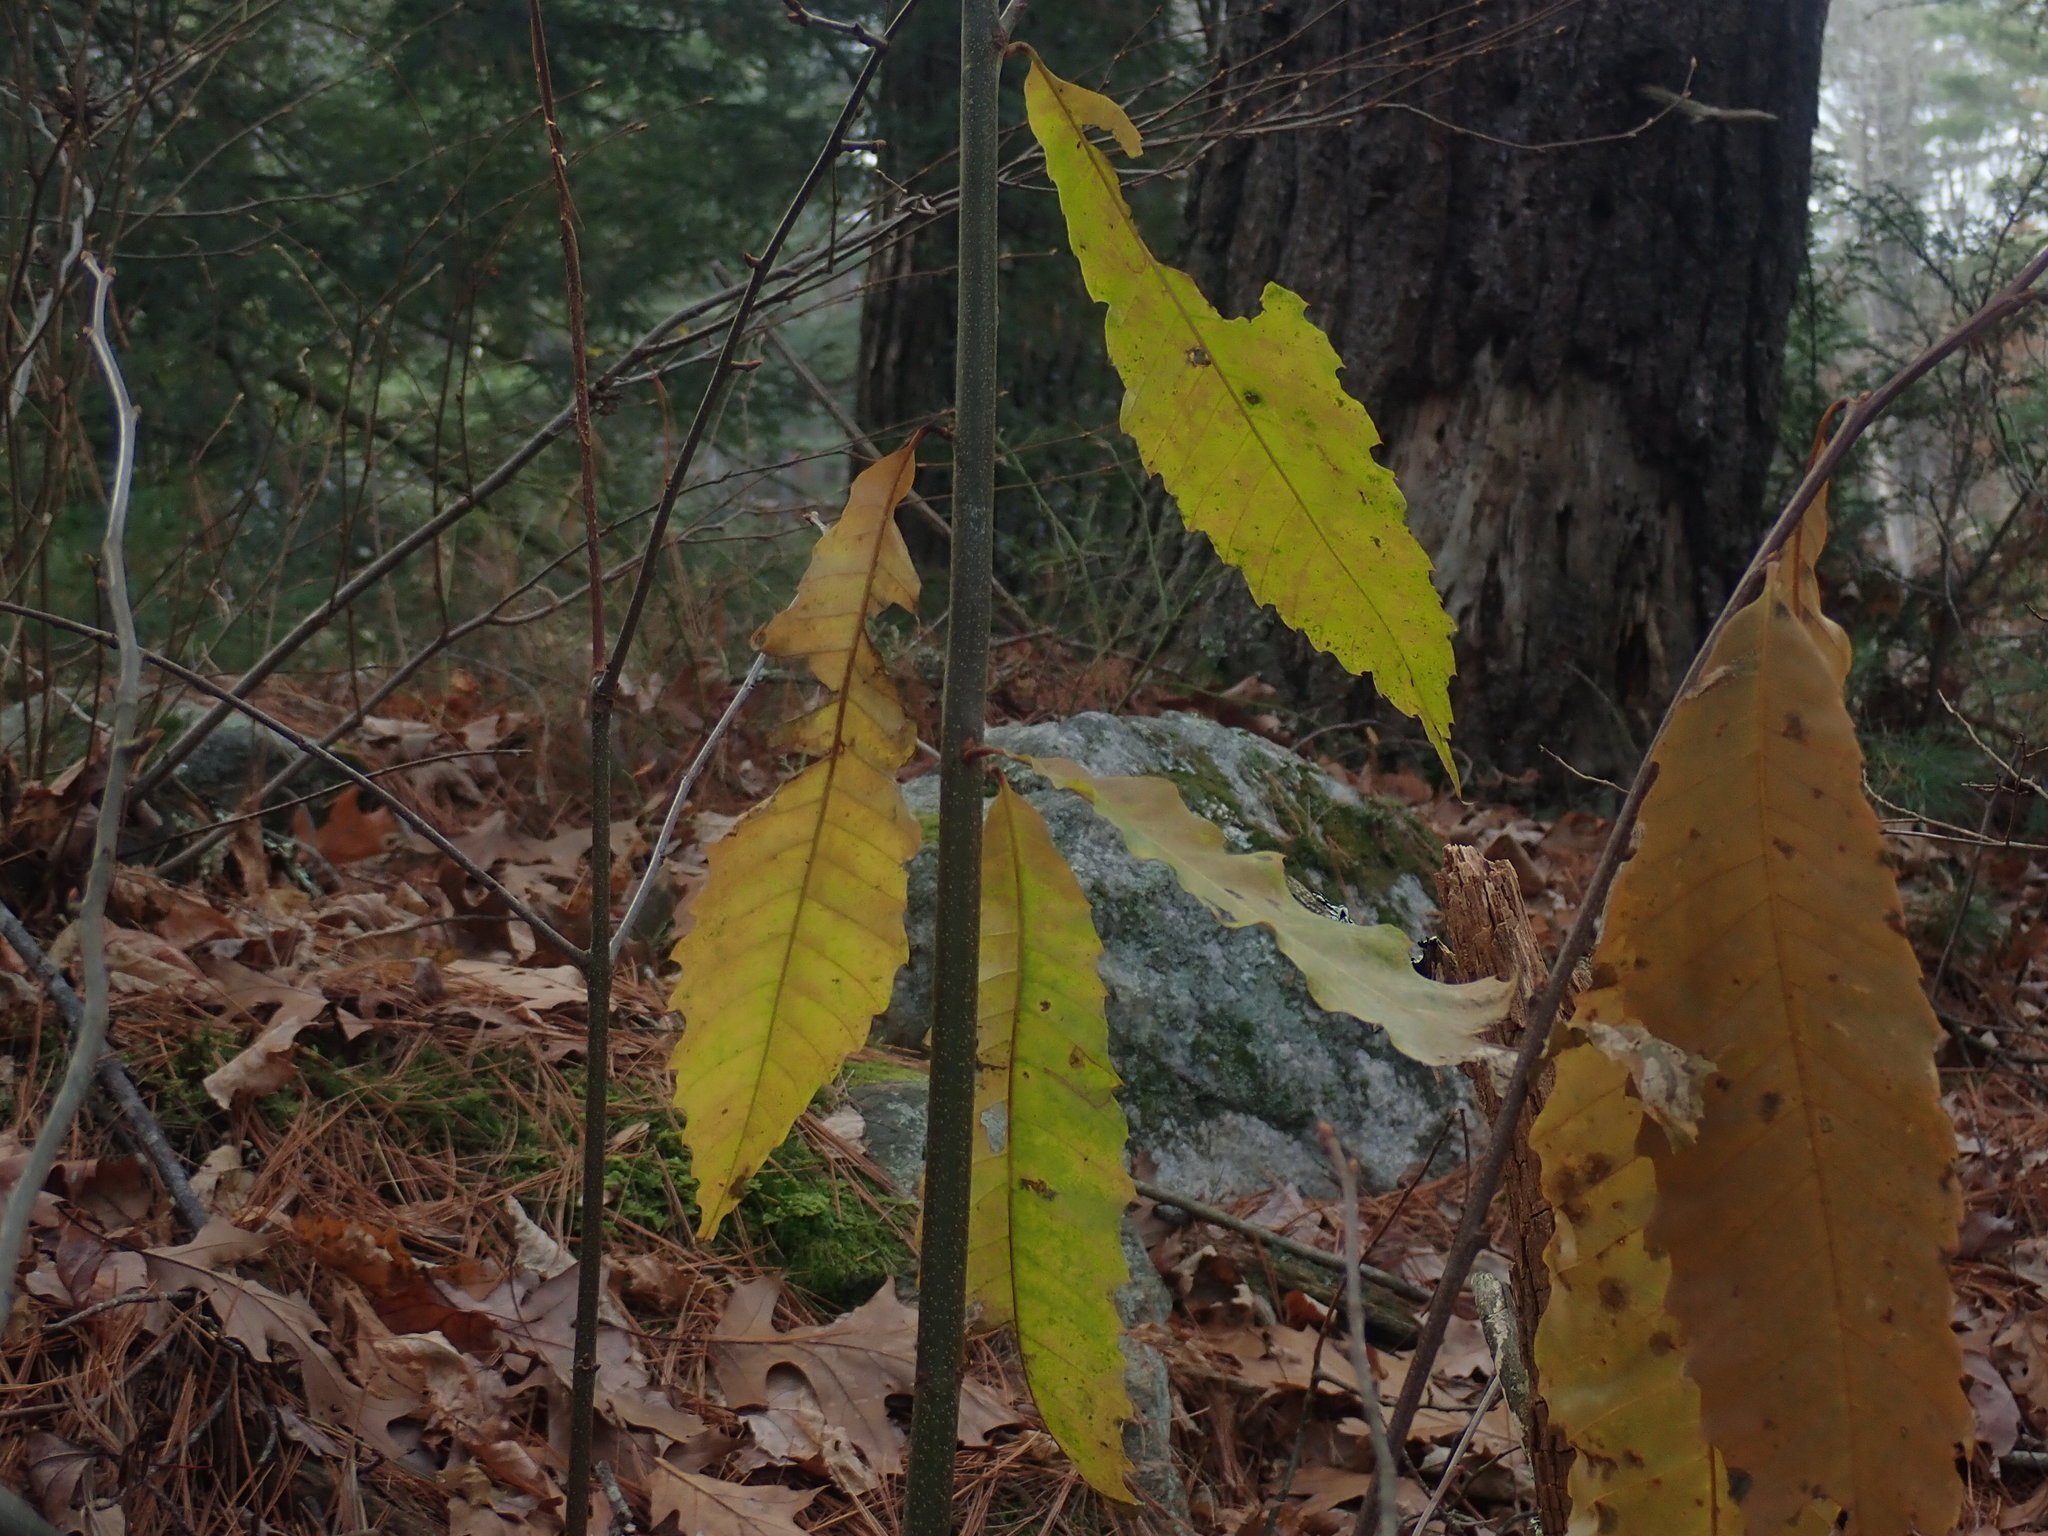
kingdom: Plantae
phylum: Tracheophyta
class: Magnoliopsida
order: Fagales
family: Fagaceae
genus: Castanea
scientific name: Castanea dentata
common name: American chestnut
